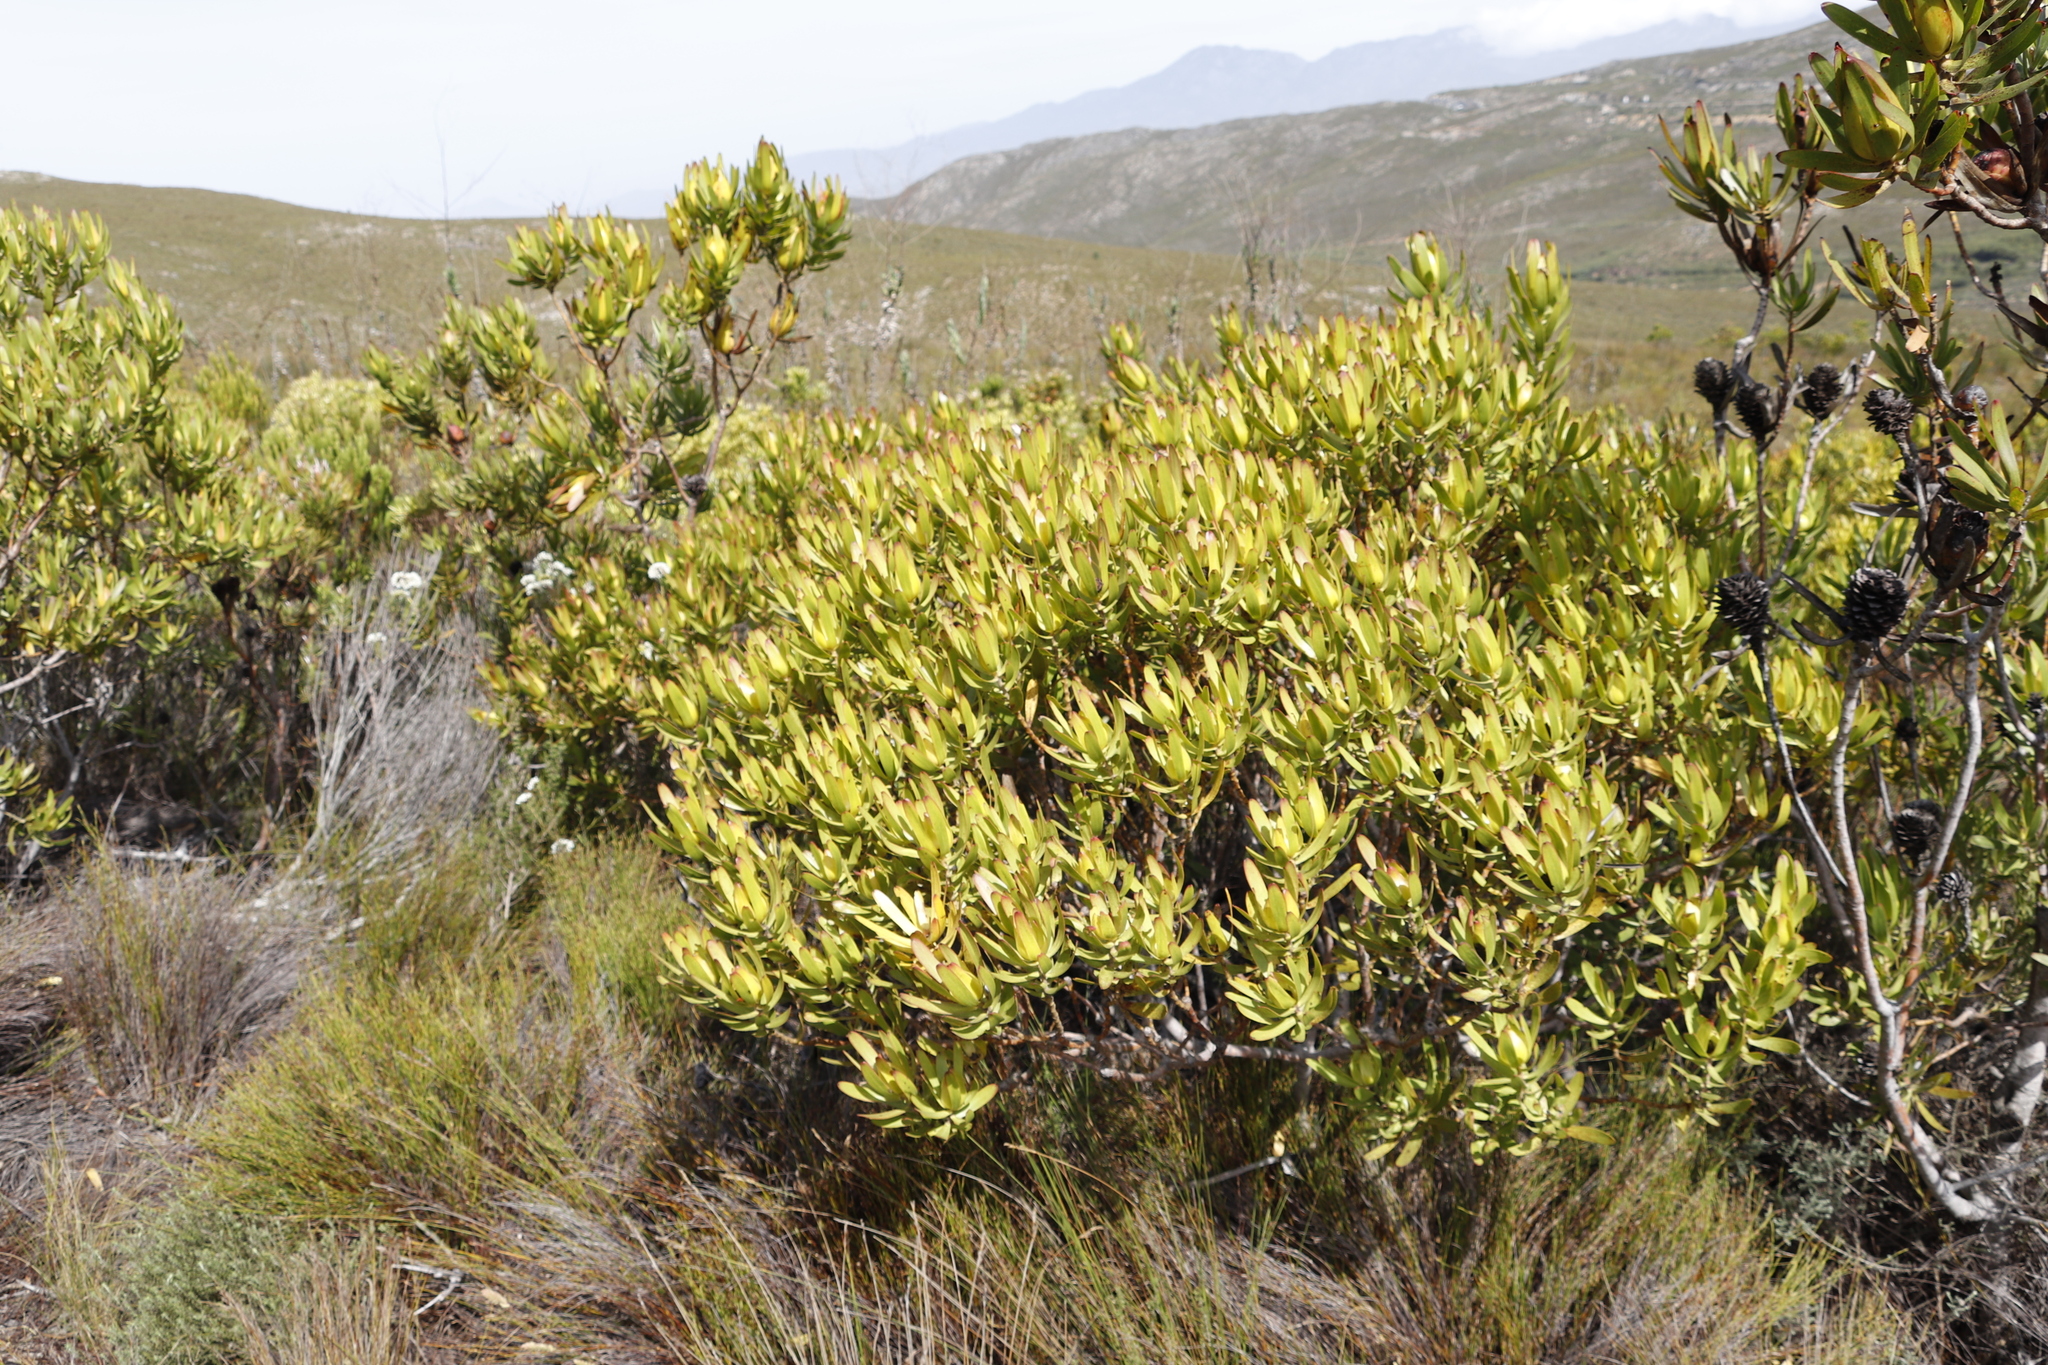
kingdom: Plantae
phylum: Tracheophyta
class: Magnoliopsida
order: Proteales
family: Proteaceae
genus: Leucadendron
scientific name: Leucadendron laureolum
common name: Golden sunshinebush
